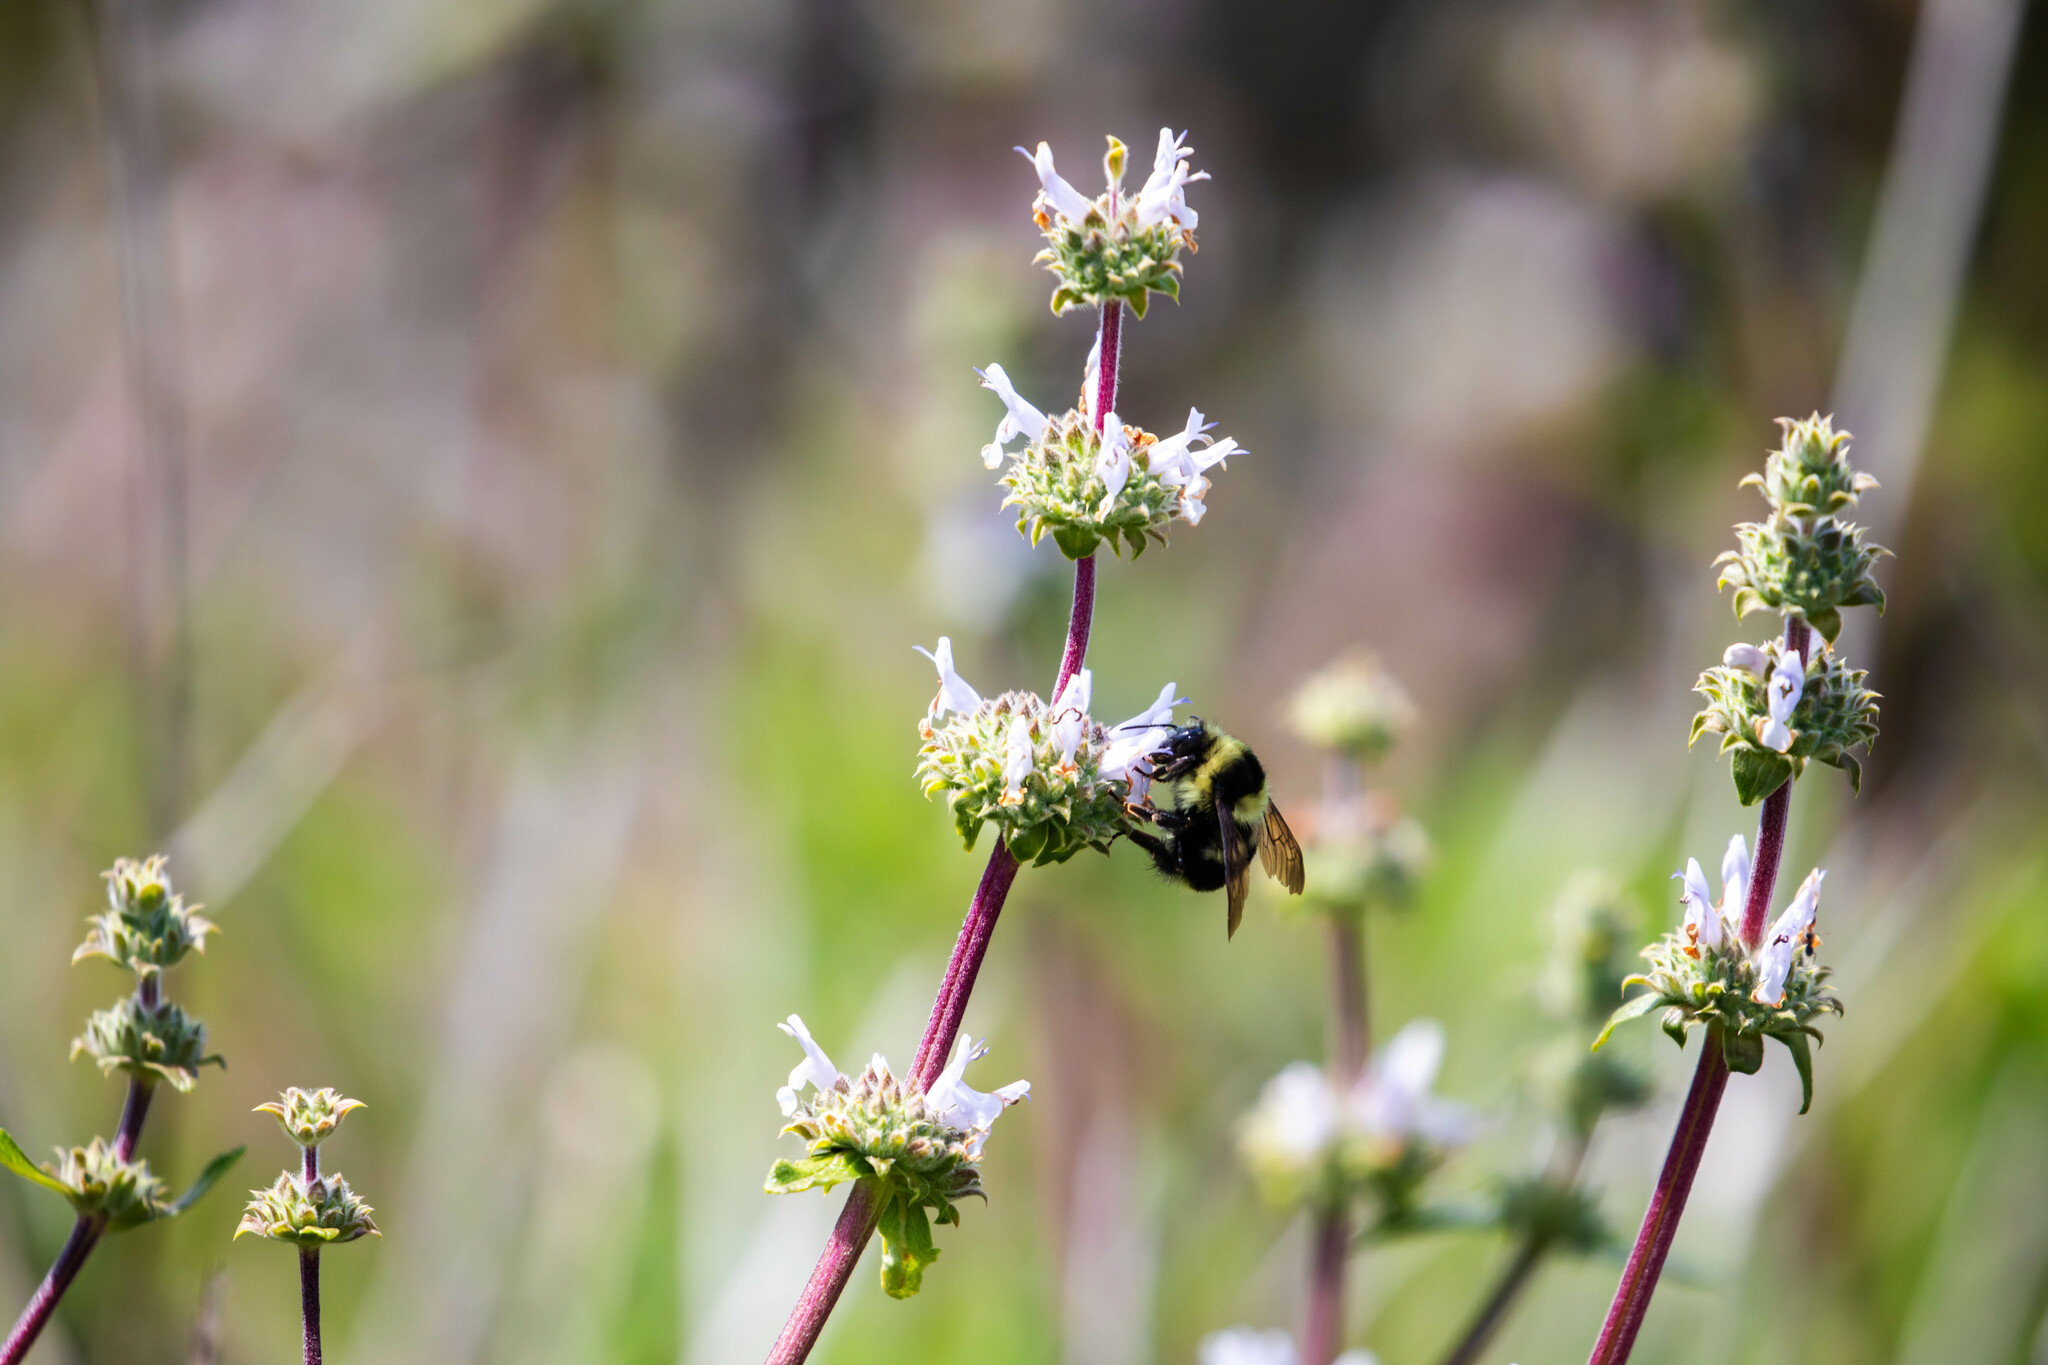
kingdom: Animalia
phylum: Arthropoda
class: Insecta
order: Hymenoptera
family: Apidae
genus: Bombus
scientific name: Bombus melanopygus
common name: Black tail bumble bee
